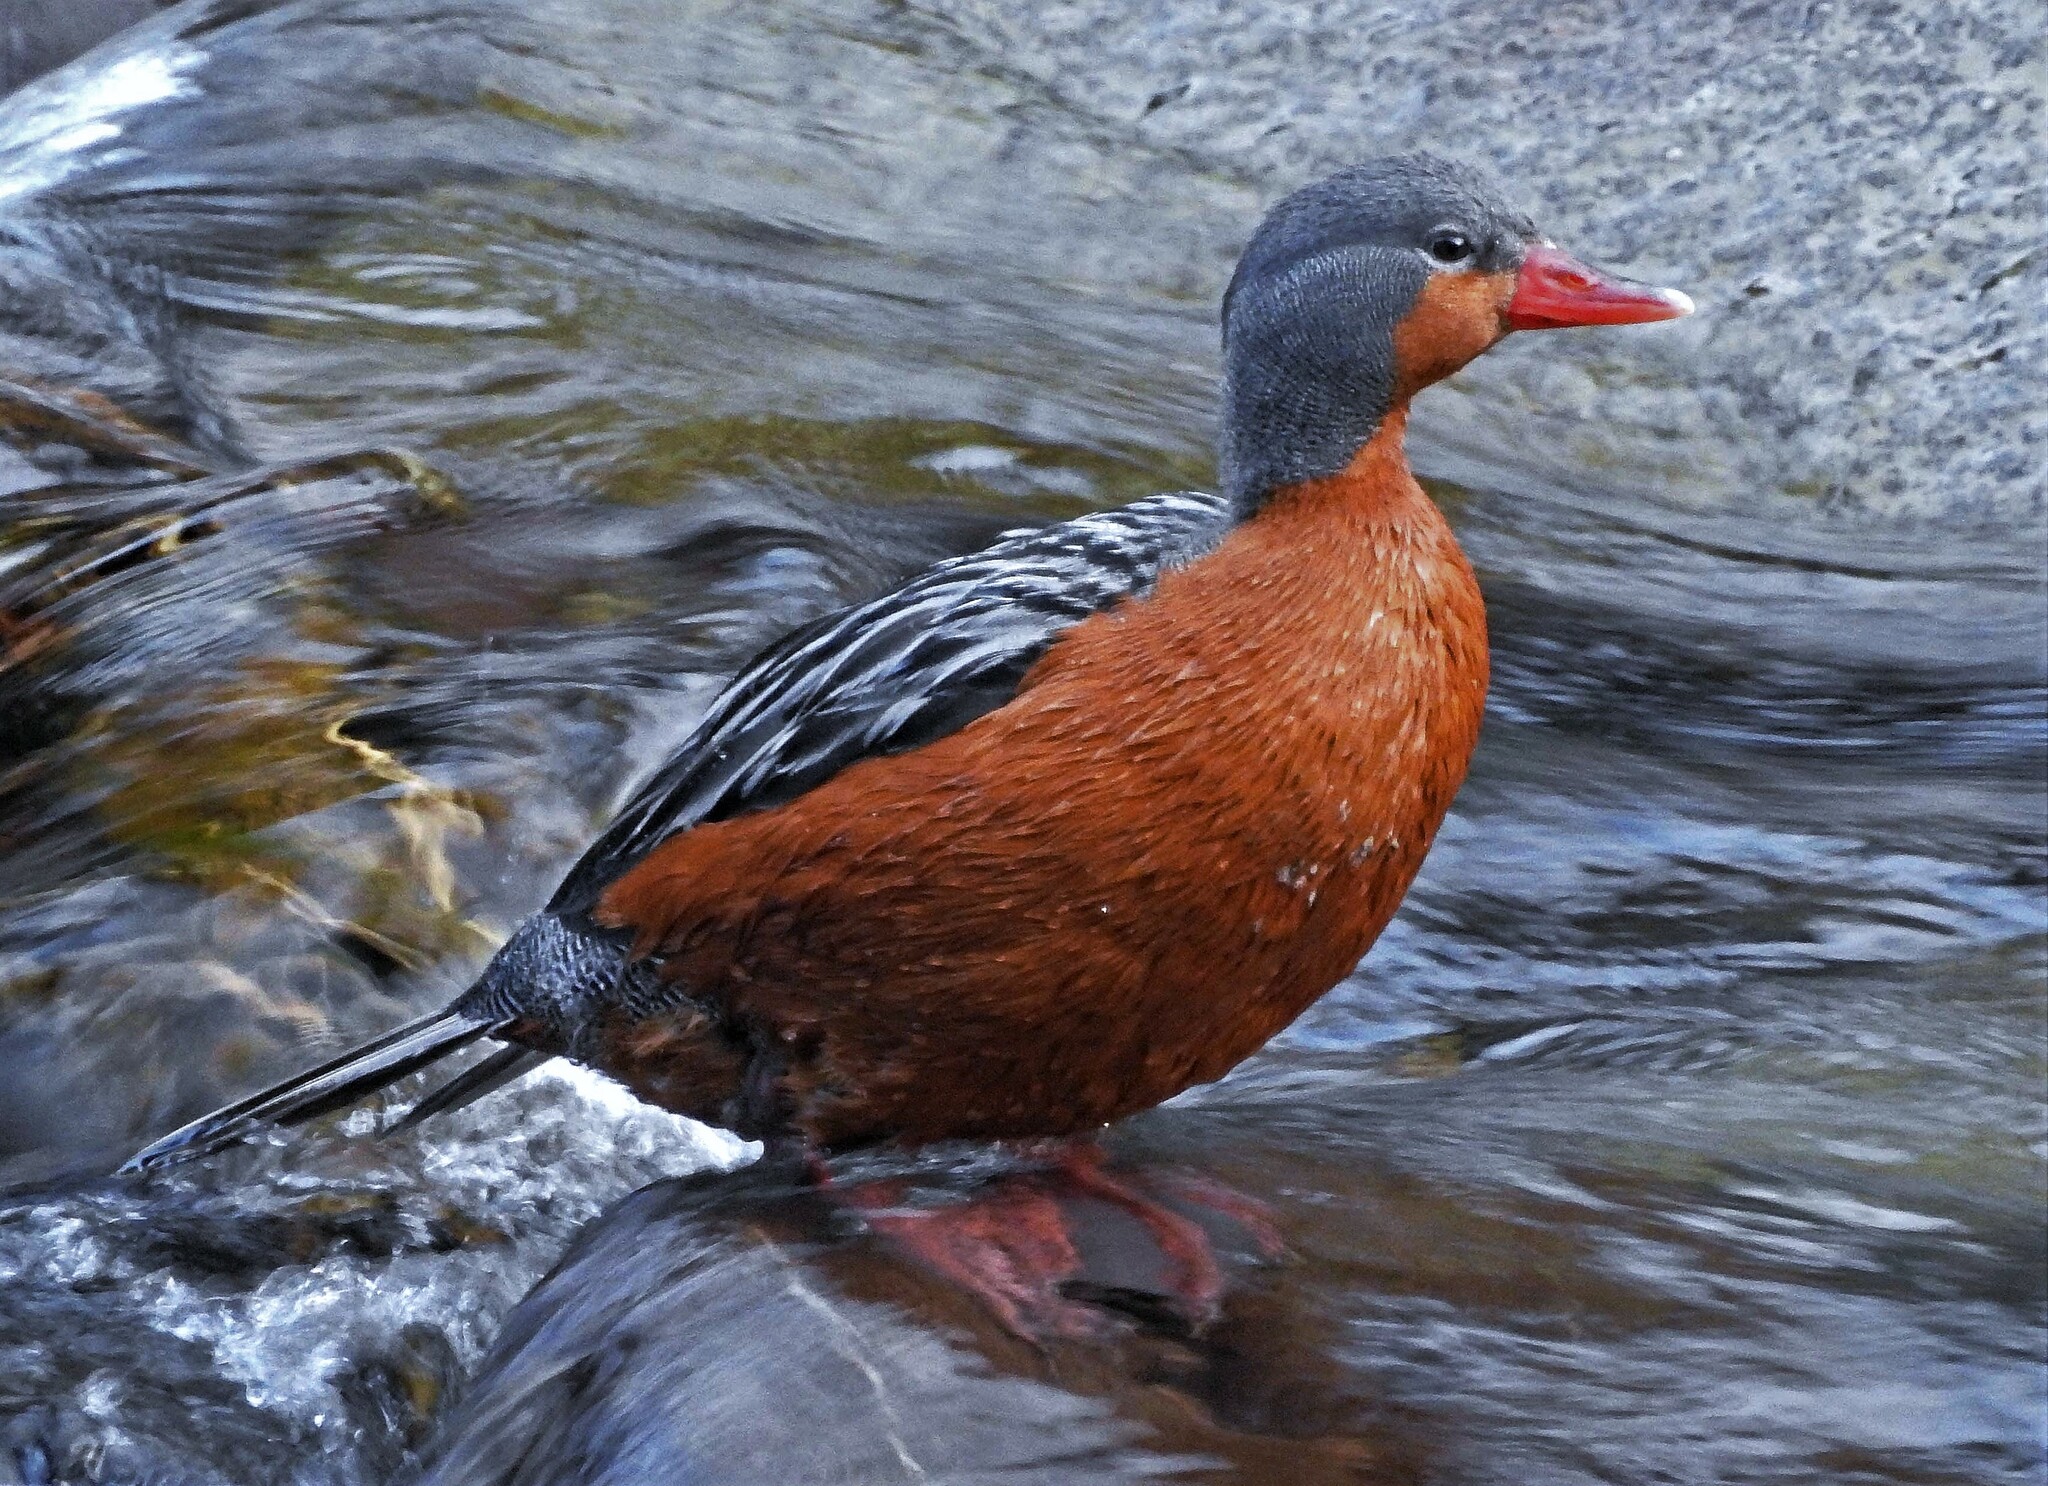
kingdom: Animalia
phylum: Chordata
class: Aves
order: Anseriformes
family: Anatidae
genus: Merganetta
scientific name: Merganetta armata
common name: Torrent duck
